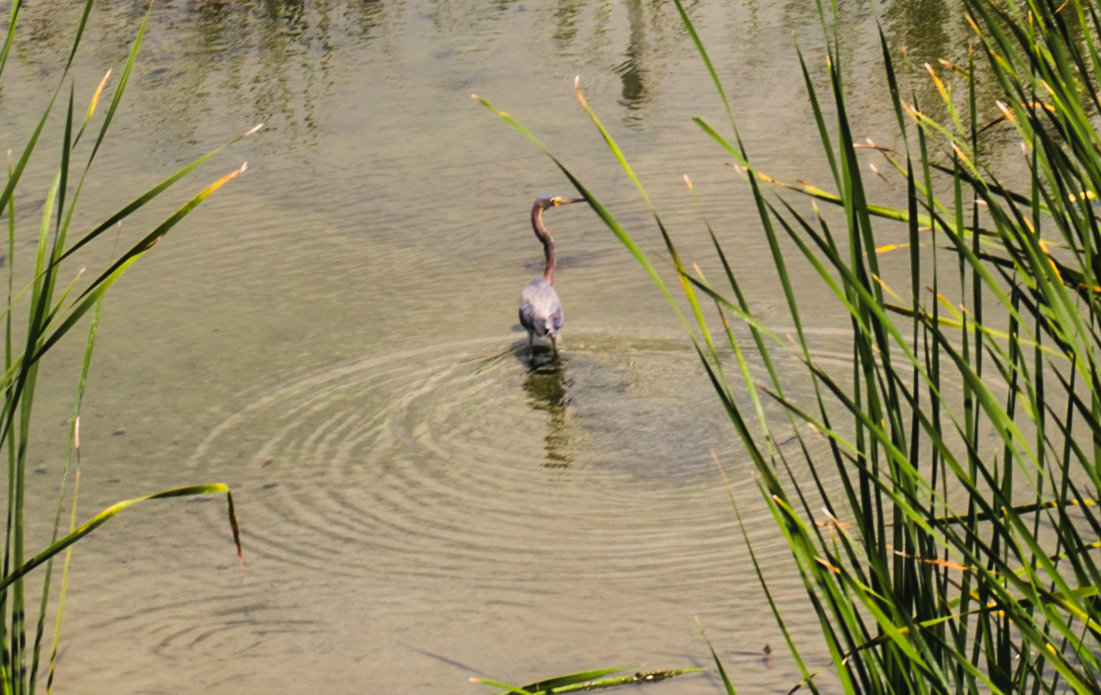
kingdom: Animalia
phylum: Chordata
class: Aves
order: Pelecaniformes
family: Ardeidae
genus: Egretta
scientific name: Egretta tricolor
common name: Tricolored heron
